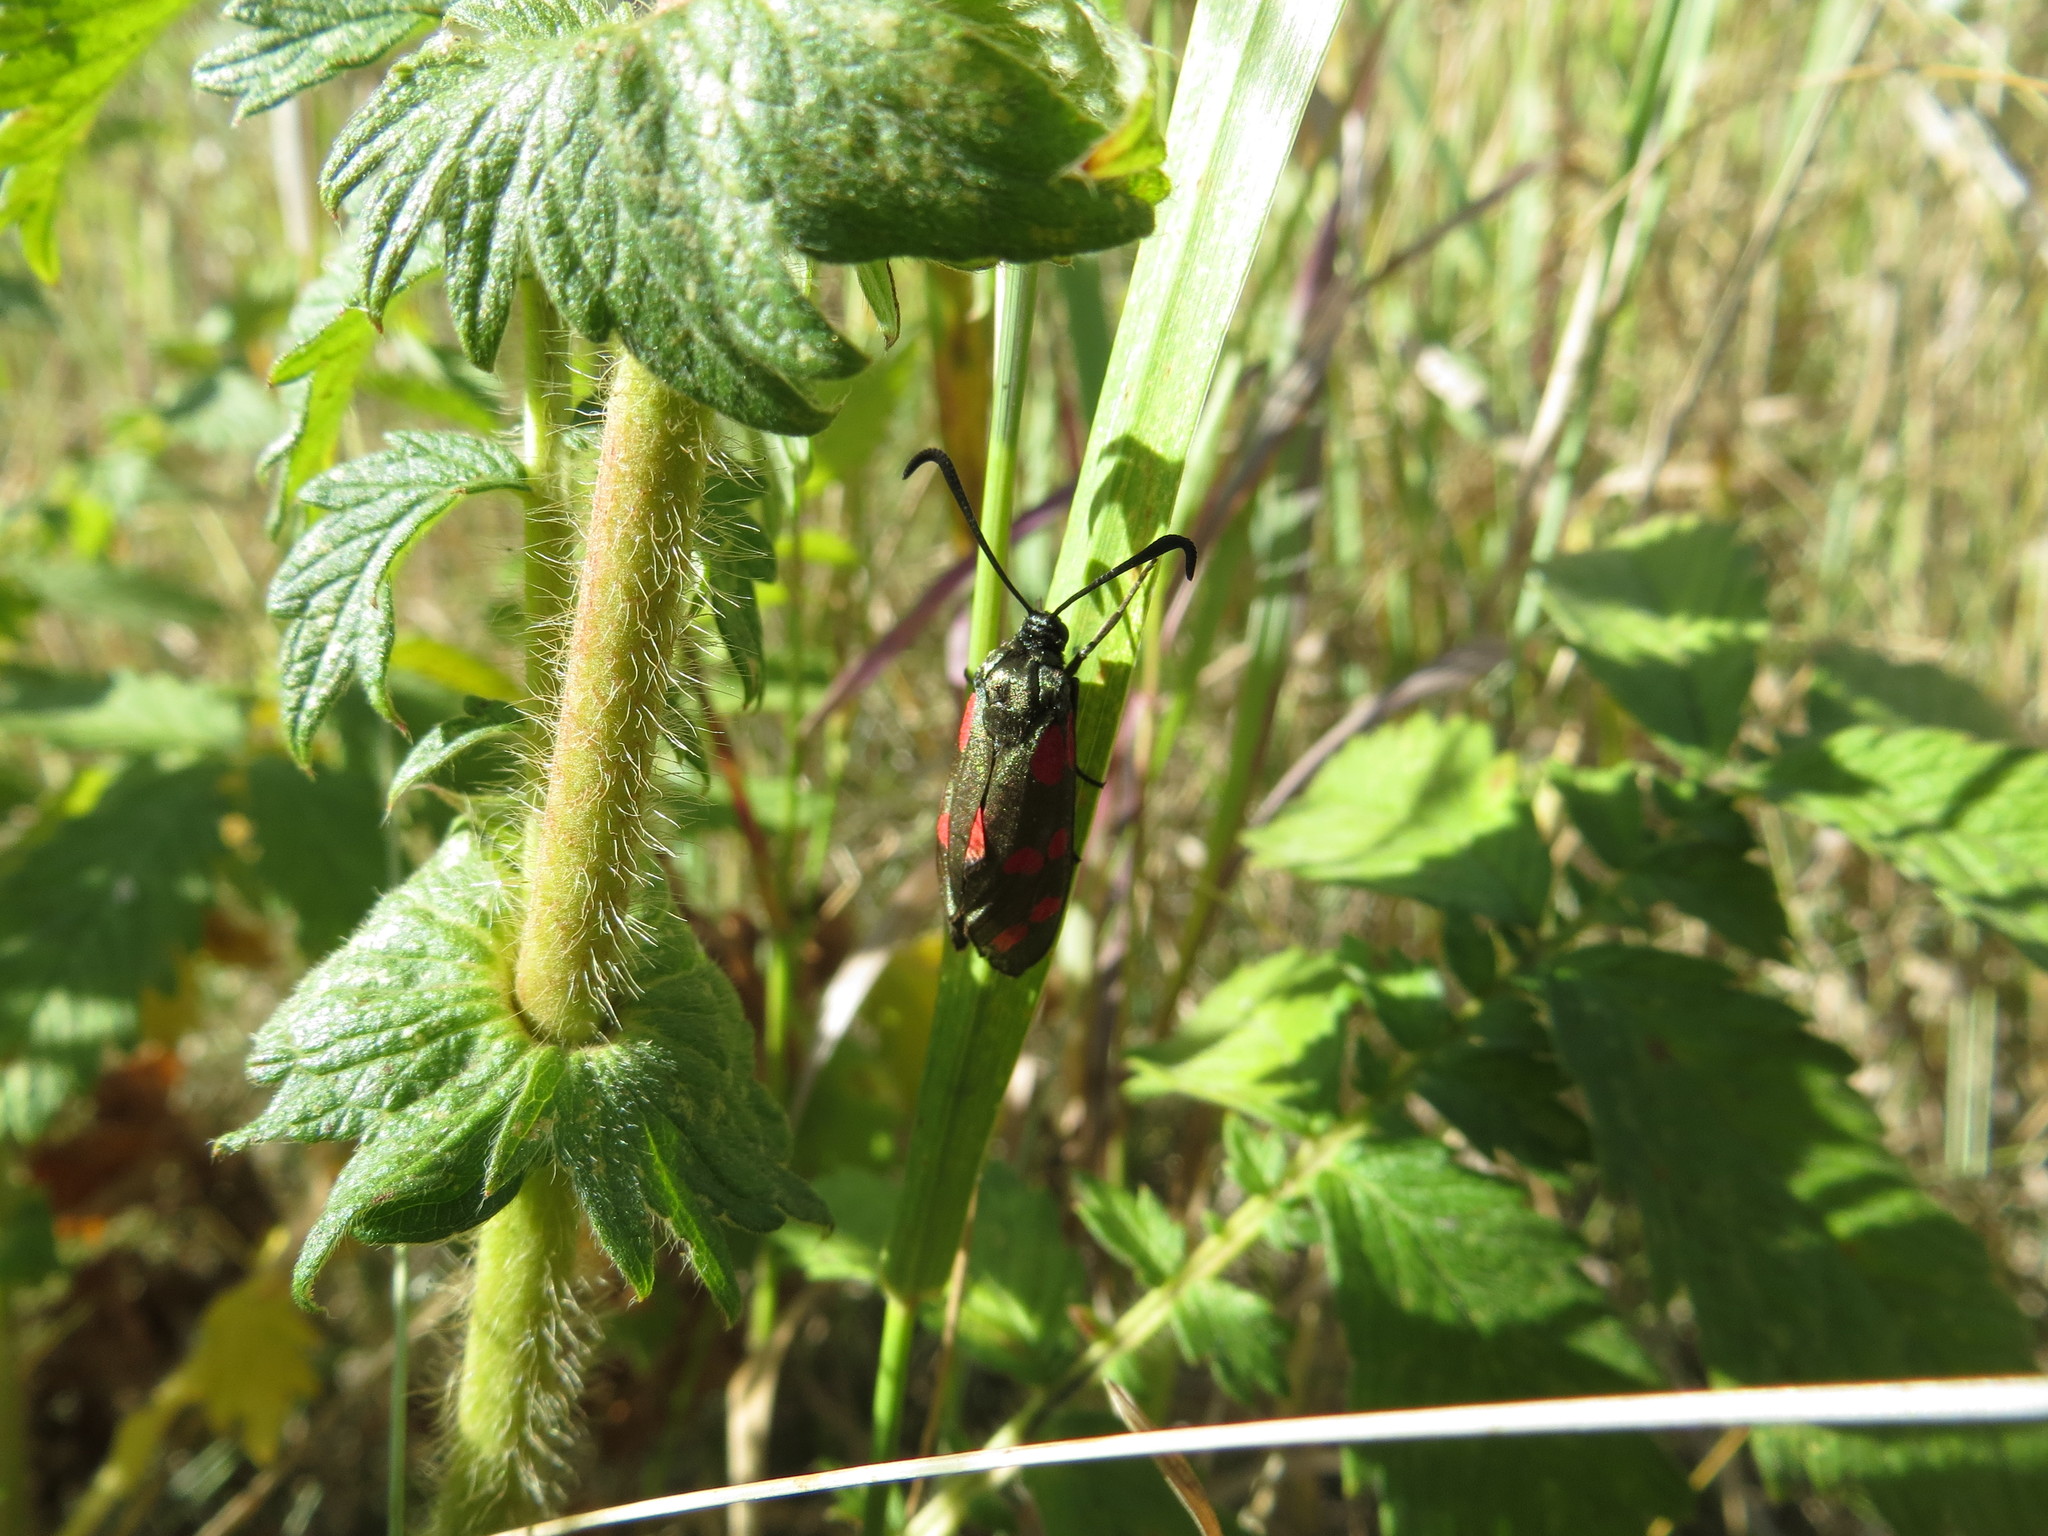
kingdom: Animalia
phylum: Arthropoda
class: Insecta
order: Lepidoptera
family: Zygaenidae
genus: Zygaena
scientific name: Zygaena filipendulae
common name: Six-spot burnet
